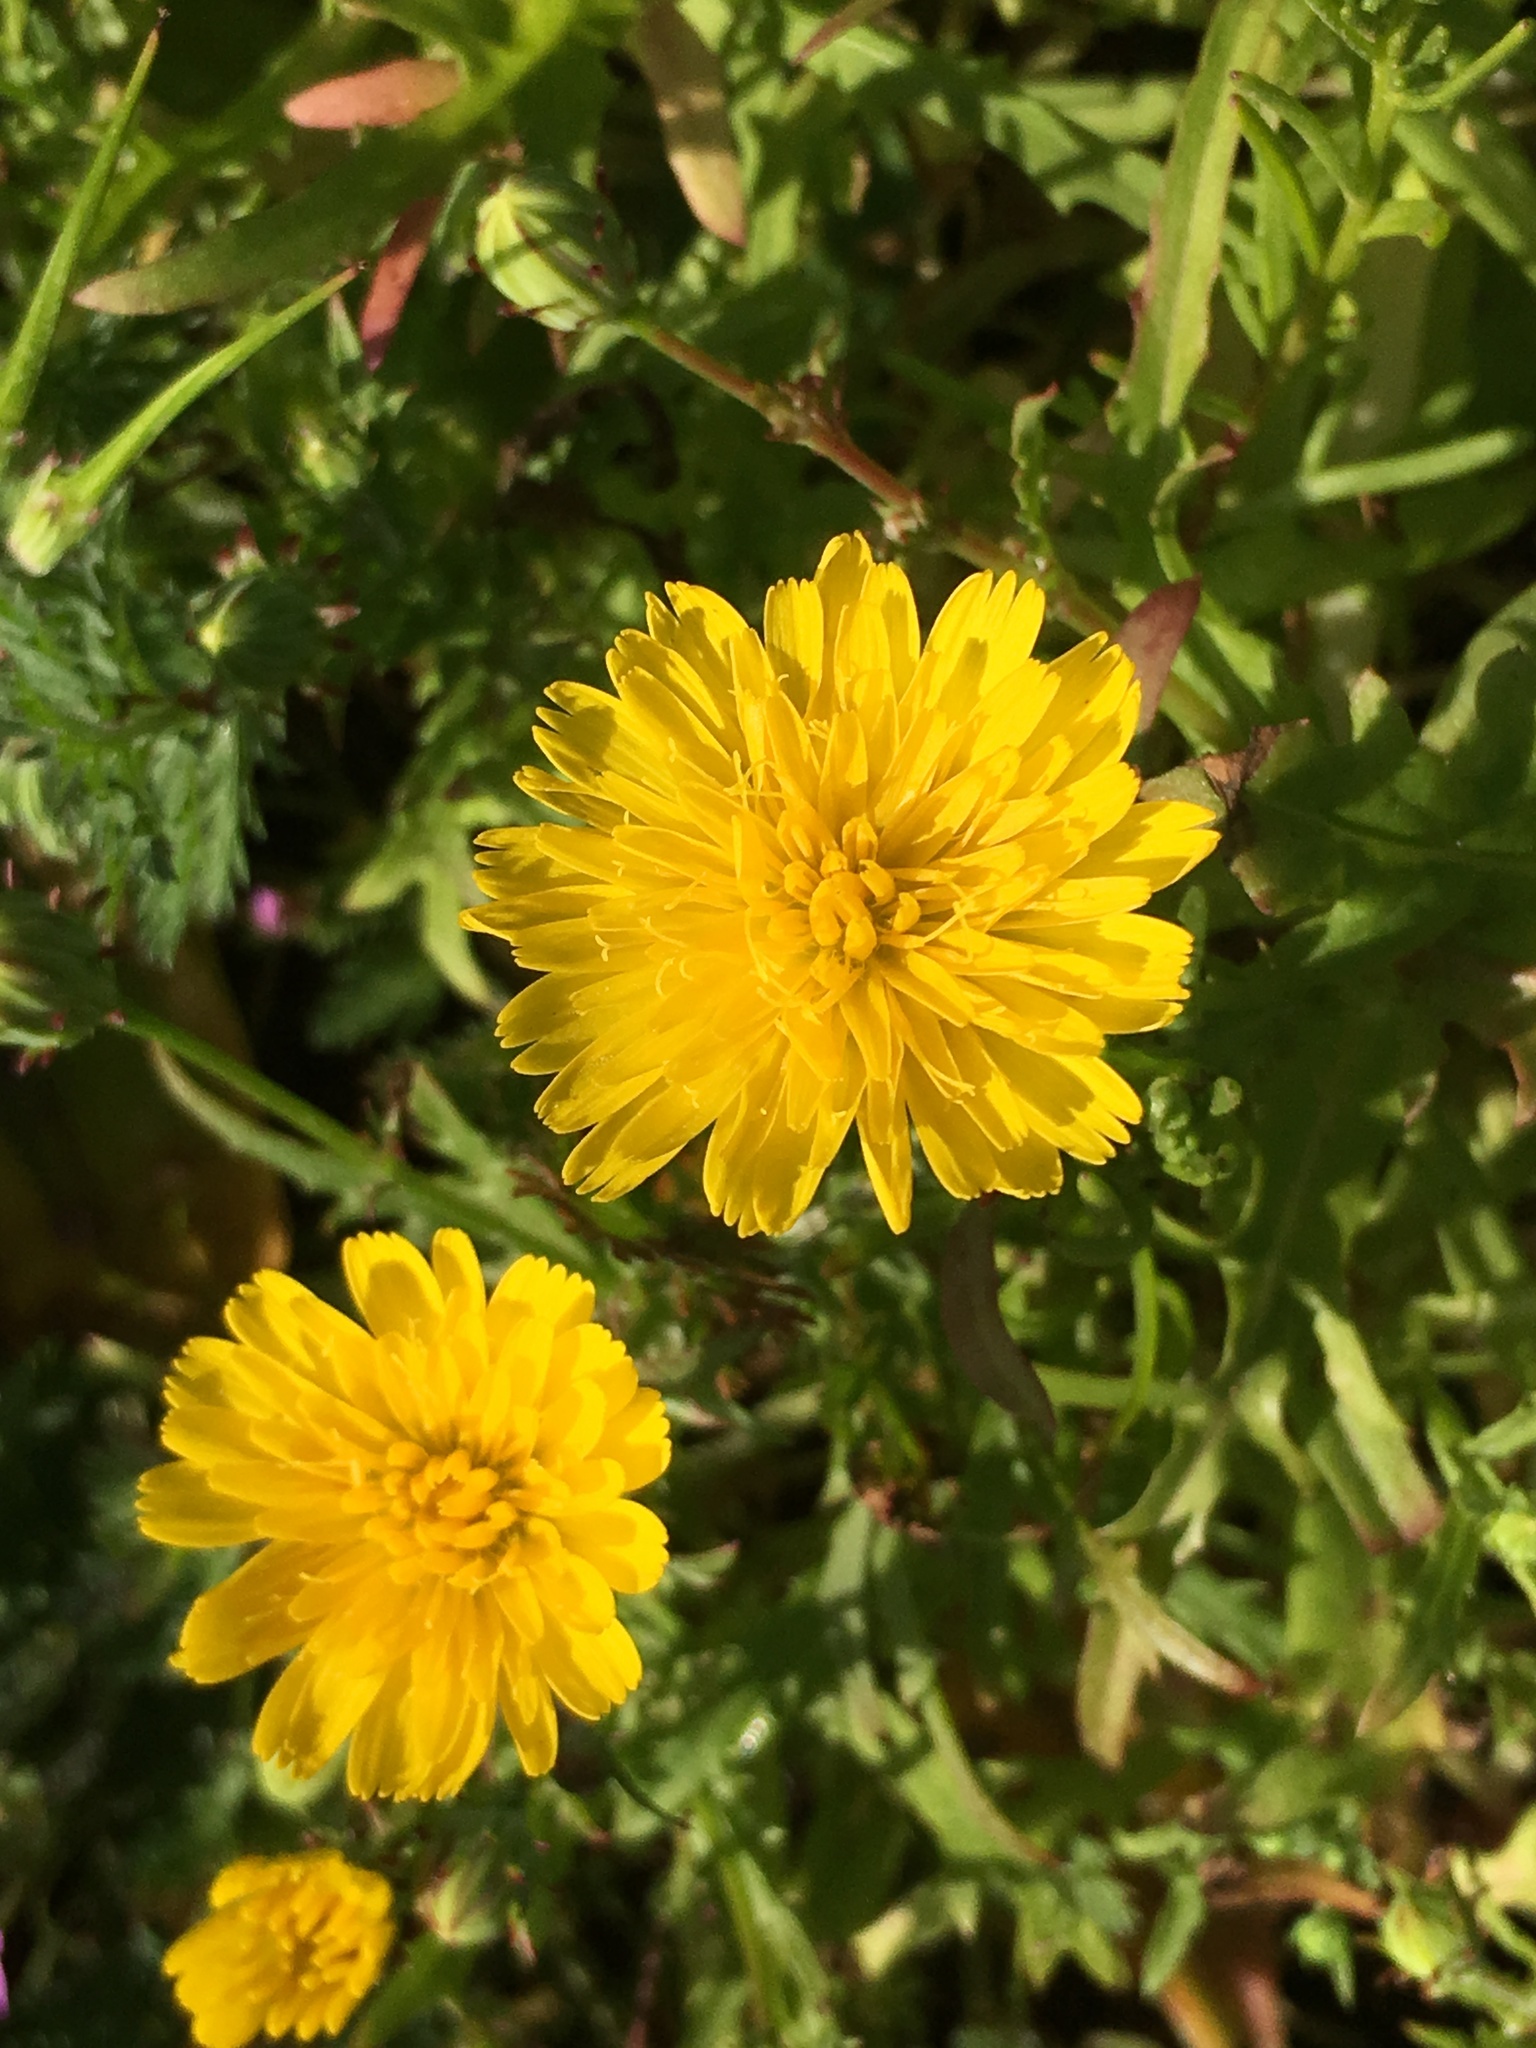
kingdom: Plantae
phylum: Tracheophyta
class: Magnoliopsida
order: Asterales
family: Asteraceae
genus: Malacothrix
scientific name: Malacothrix foliosa
